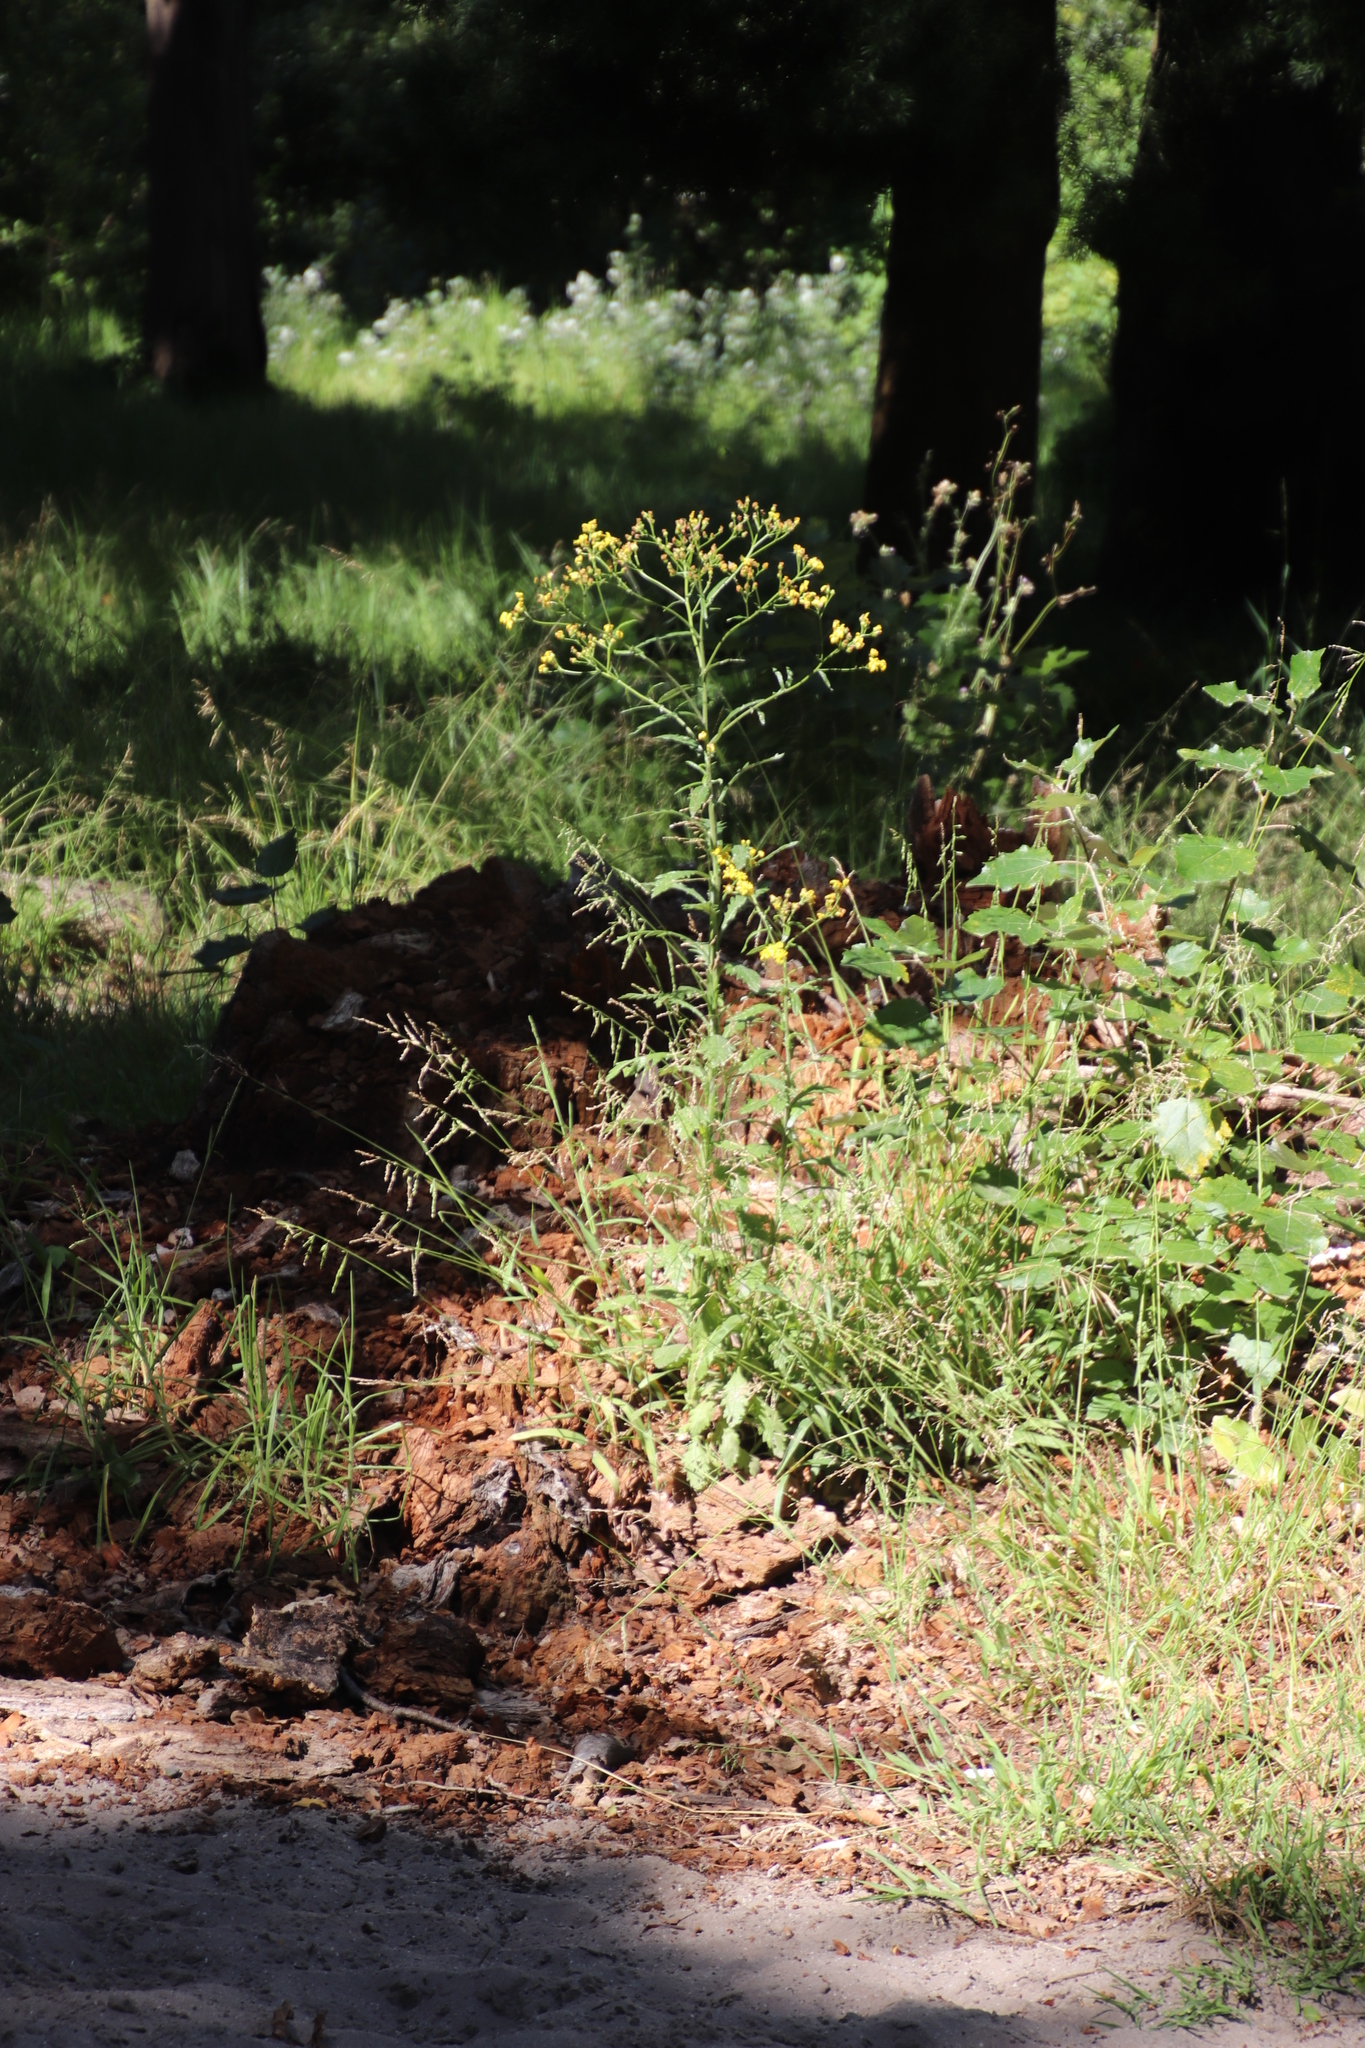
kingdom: Plantae
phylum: Tracheophyta
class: Magnoliopsida
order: Asterales
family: Asteraceae
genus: Senecio
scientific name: Senecio pterophorus
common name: Shoddy ragwort
